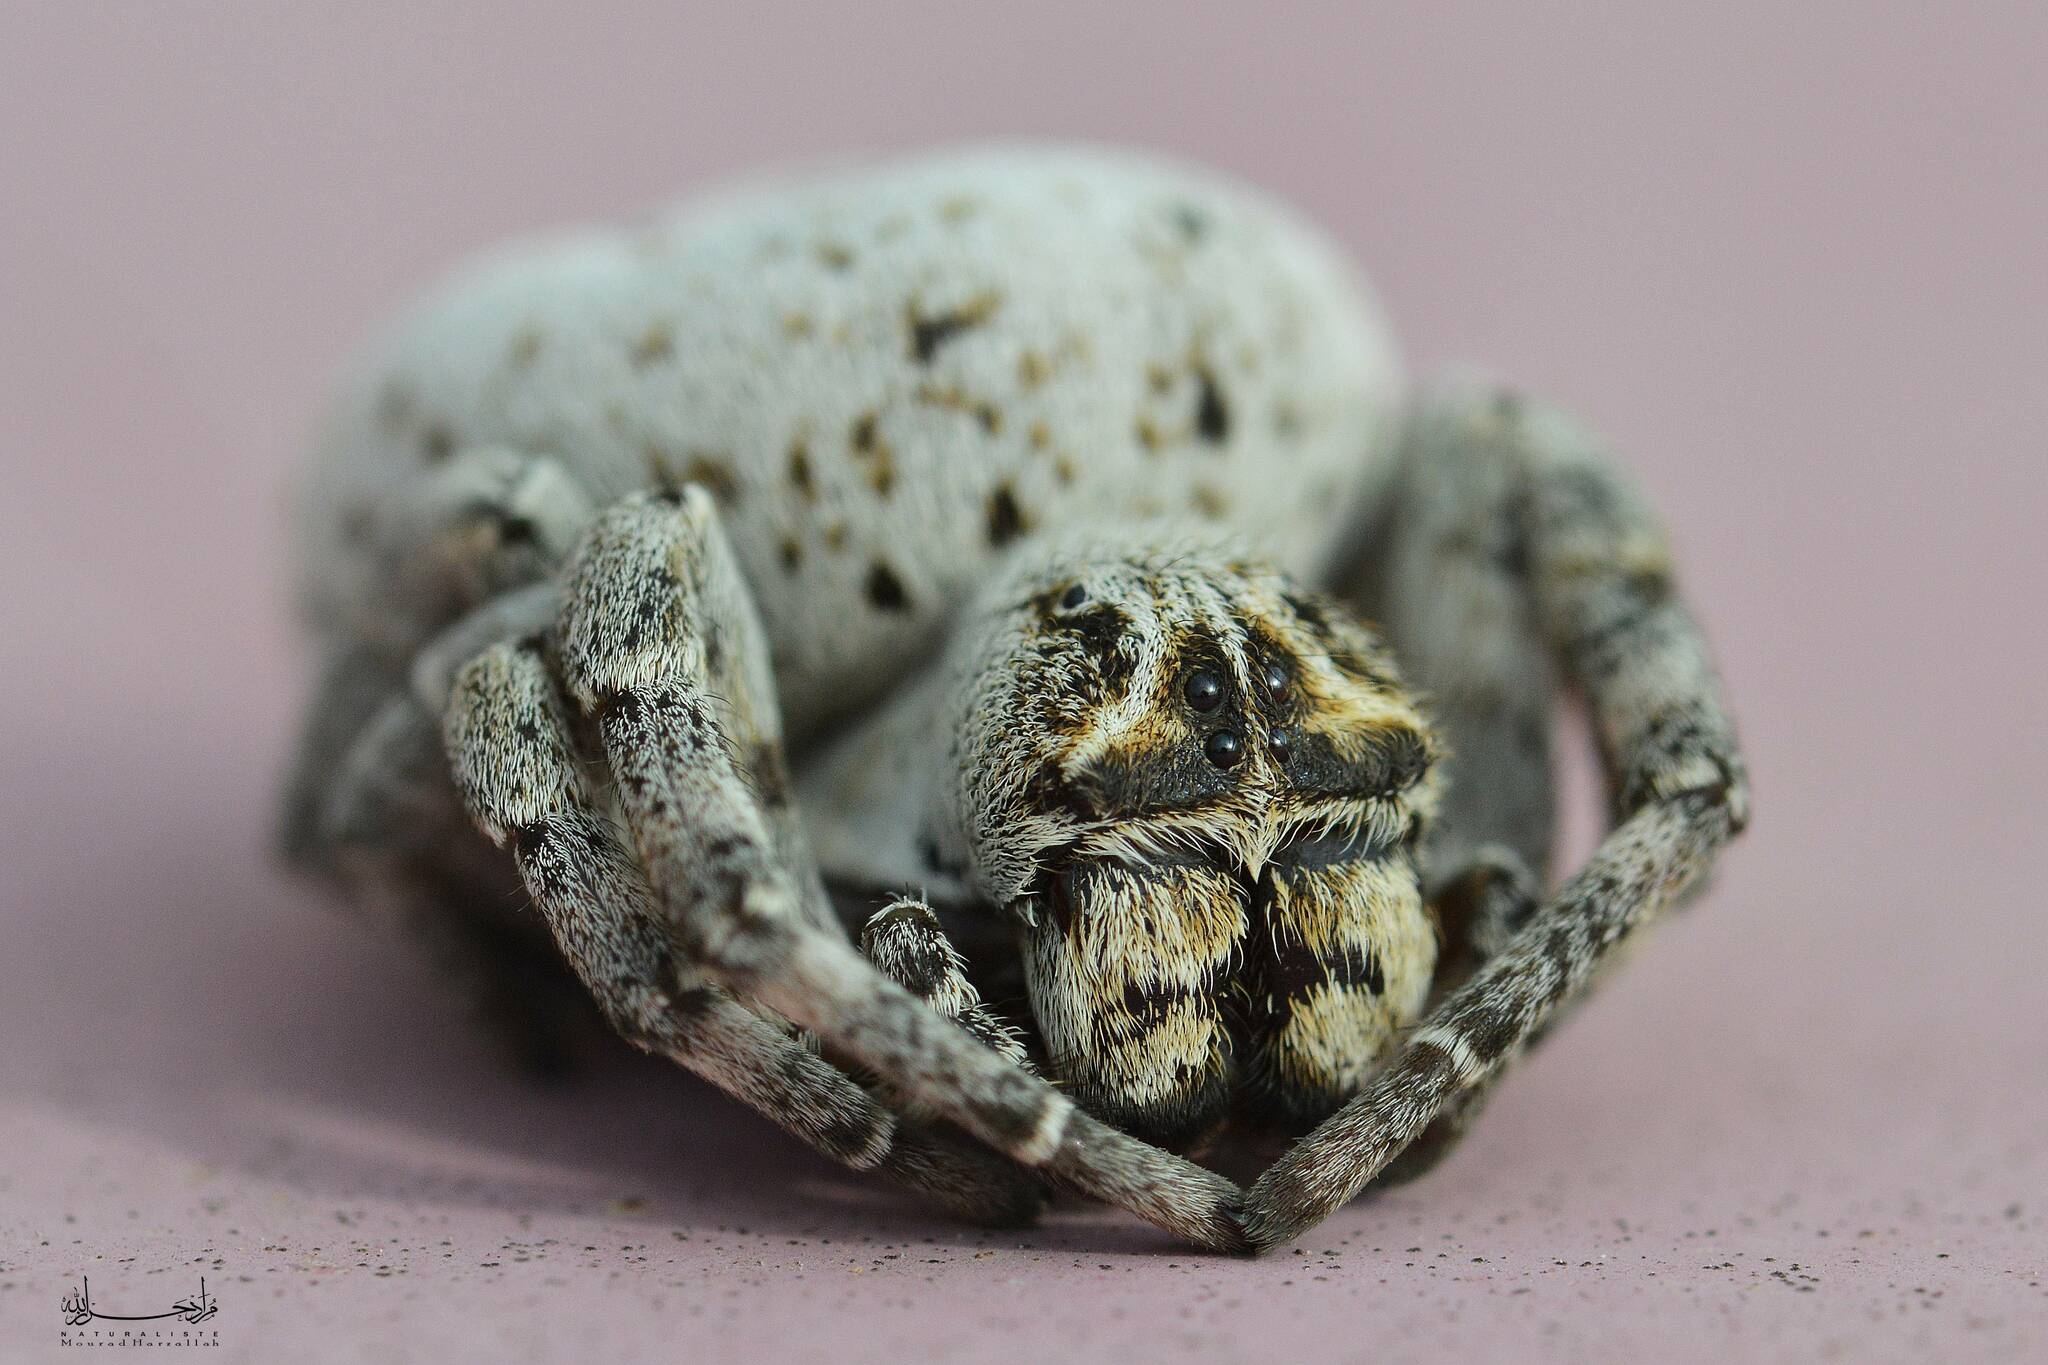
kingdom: Animalia
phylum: Arthropoda
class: Arachnida
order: Araneae
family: Eresidae
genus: Stegodyphus
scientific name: Stegodyphus lineatus
